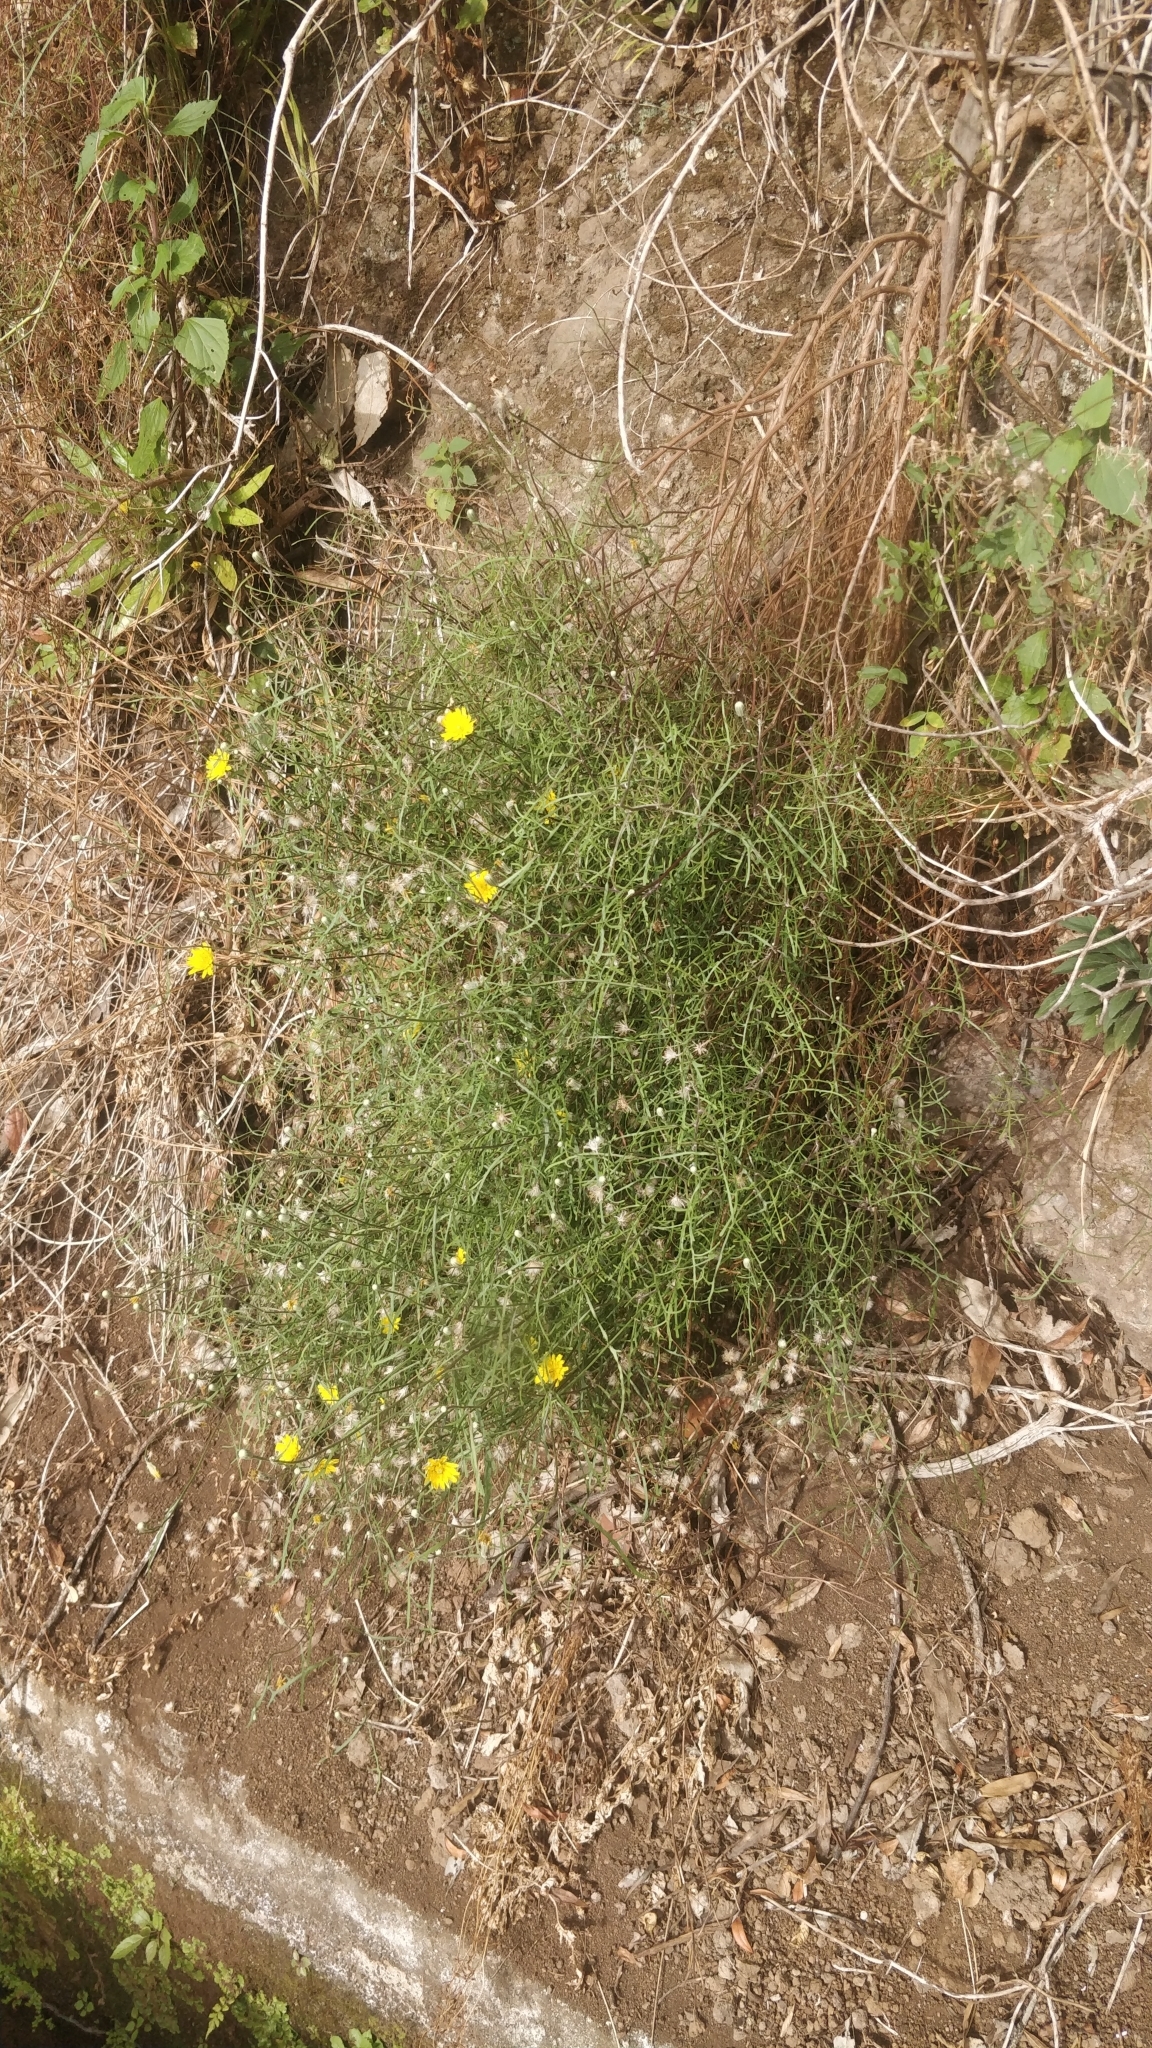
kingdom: Plantae
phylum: Tracheophyta
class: Magnoliopsida
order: Asterales
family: Asteraceae
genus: Tolpis
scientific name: Tolpis succulenta
